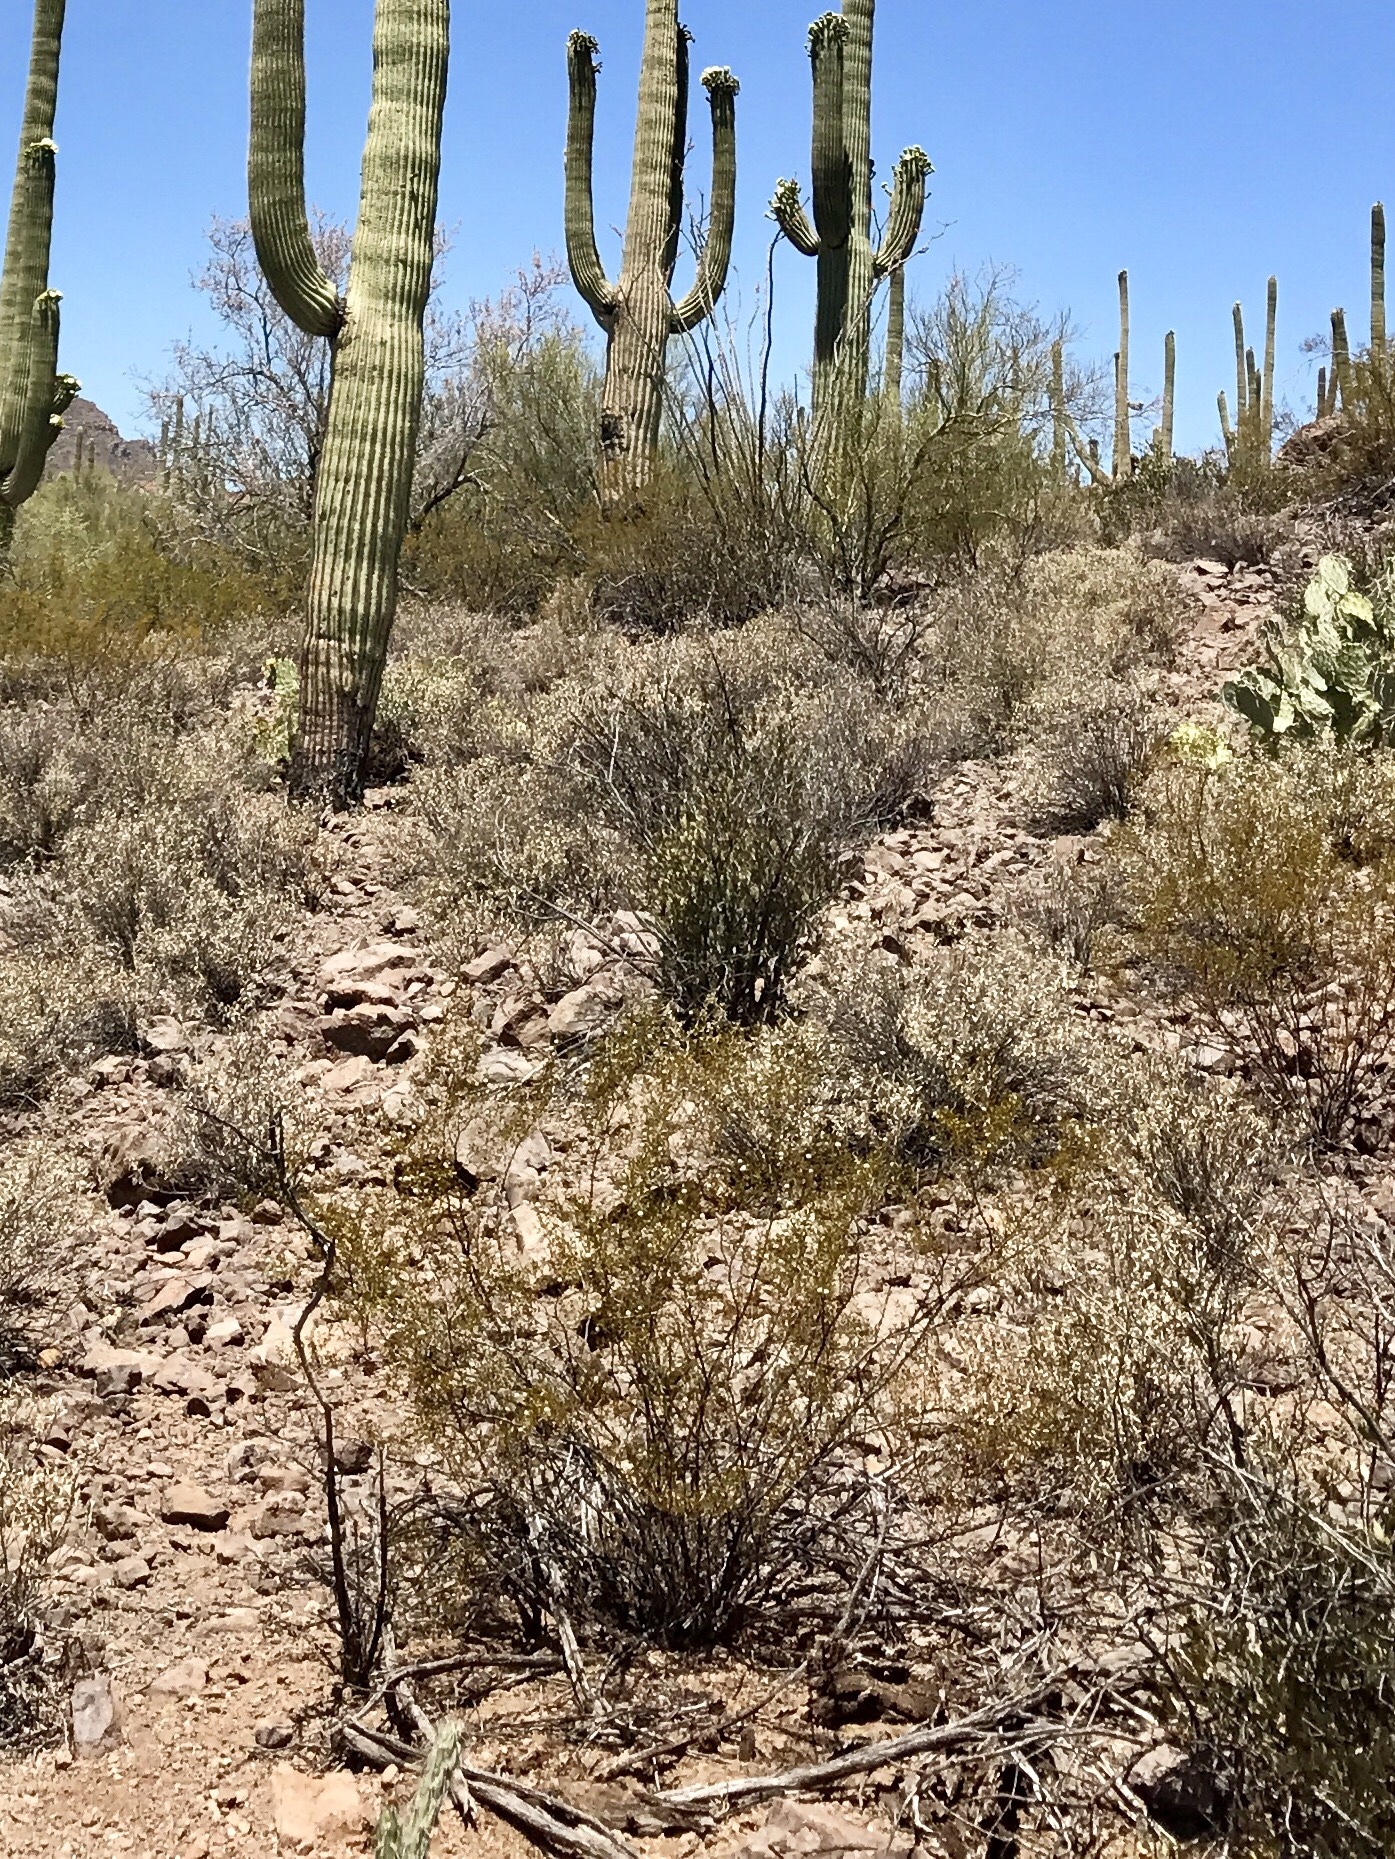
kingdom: Plantae
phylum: Tracheophyta
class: Magnoliopsida
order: Zygophyllales
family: Zygophyllaceae
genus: Larrea
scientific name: Larrea tridentata
